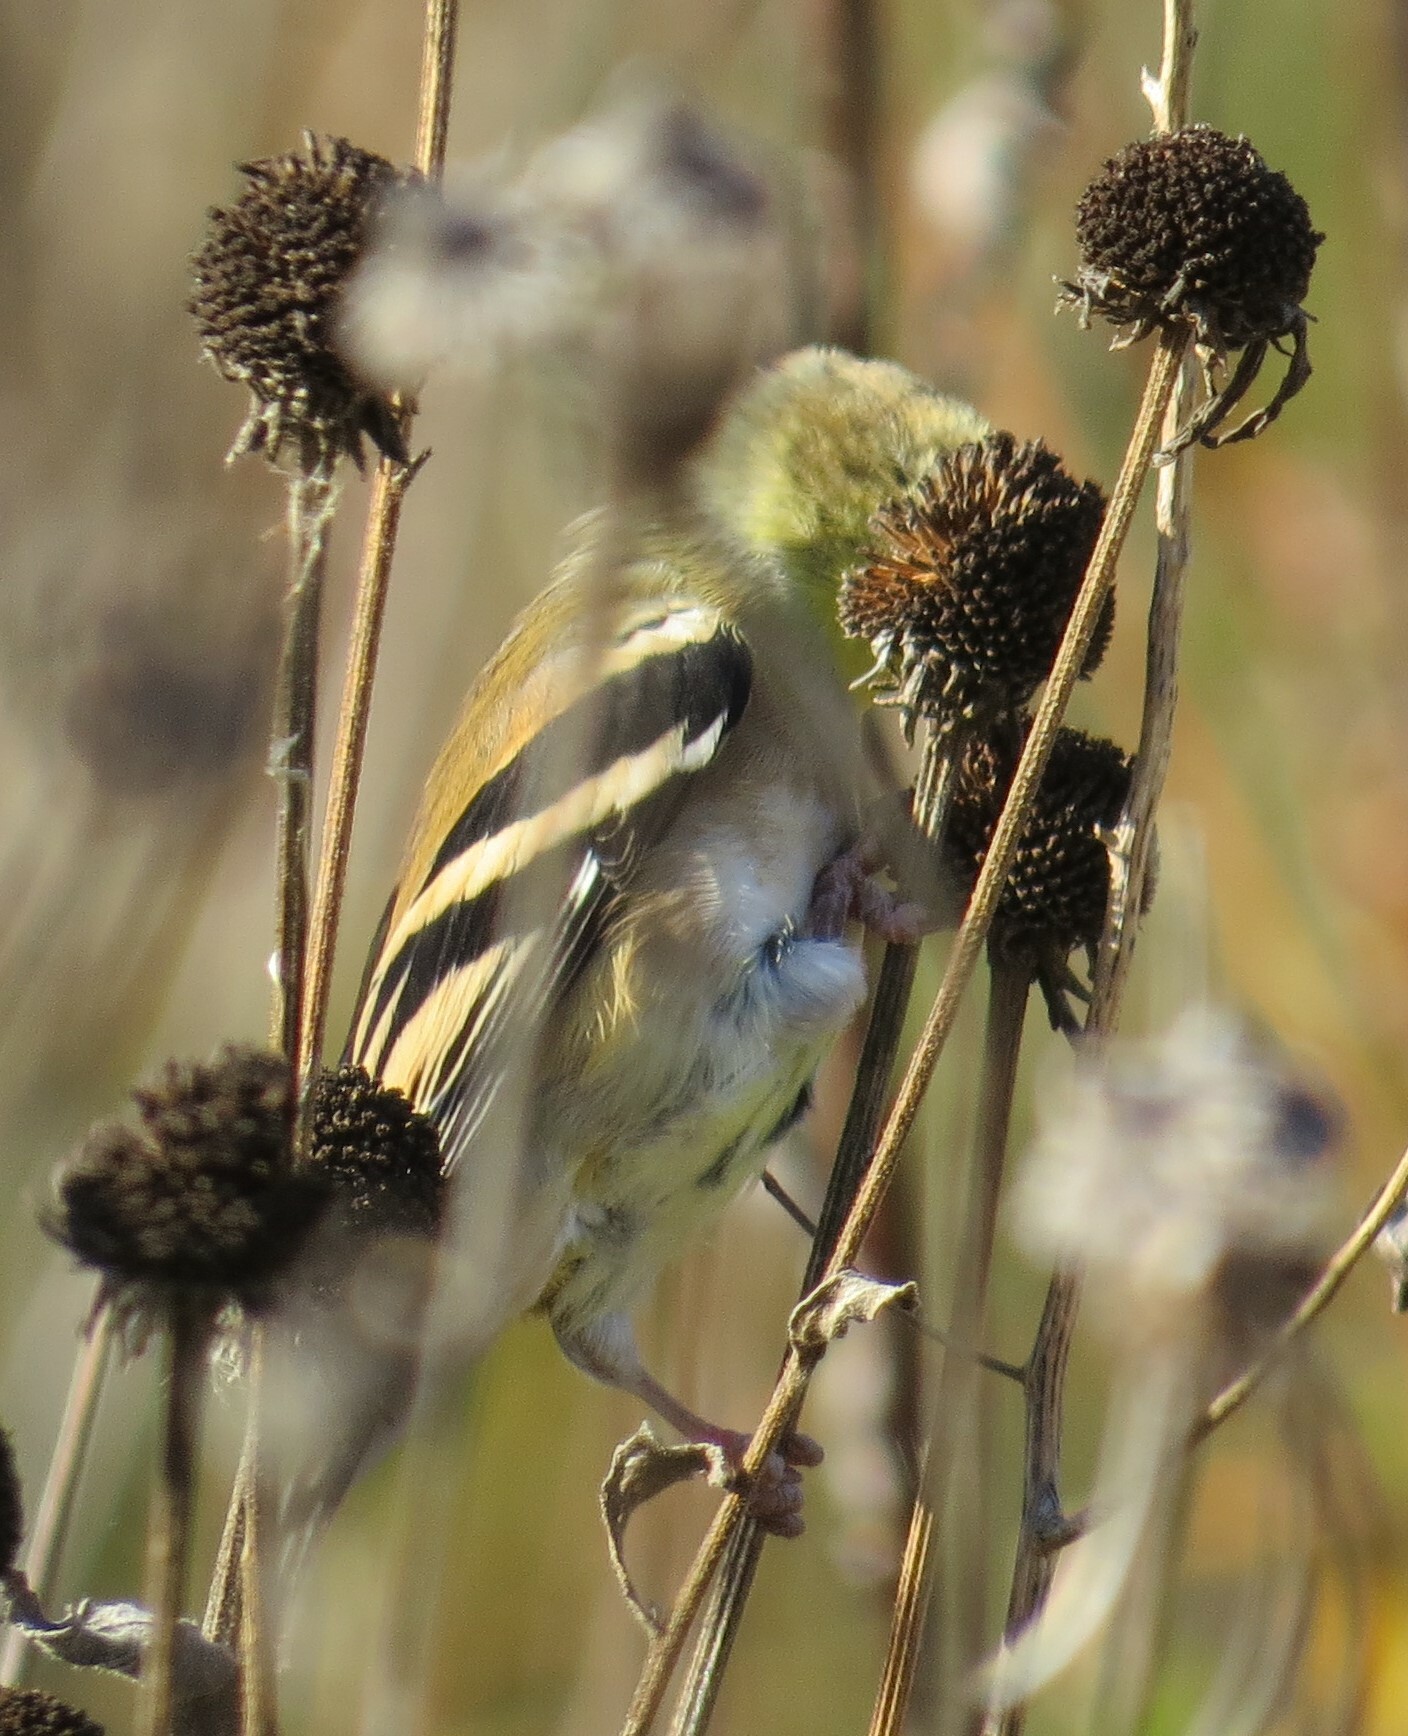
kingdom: Animalia
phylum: Chordata
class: Aves
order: Passeriformes
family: Fringillidae
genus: Spinus
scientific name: Spinus tristis
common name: American goldfinch
